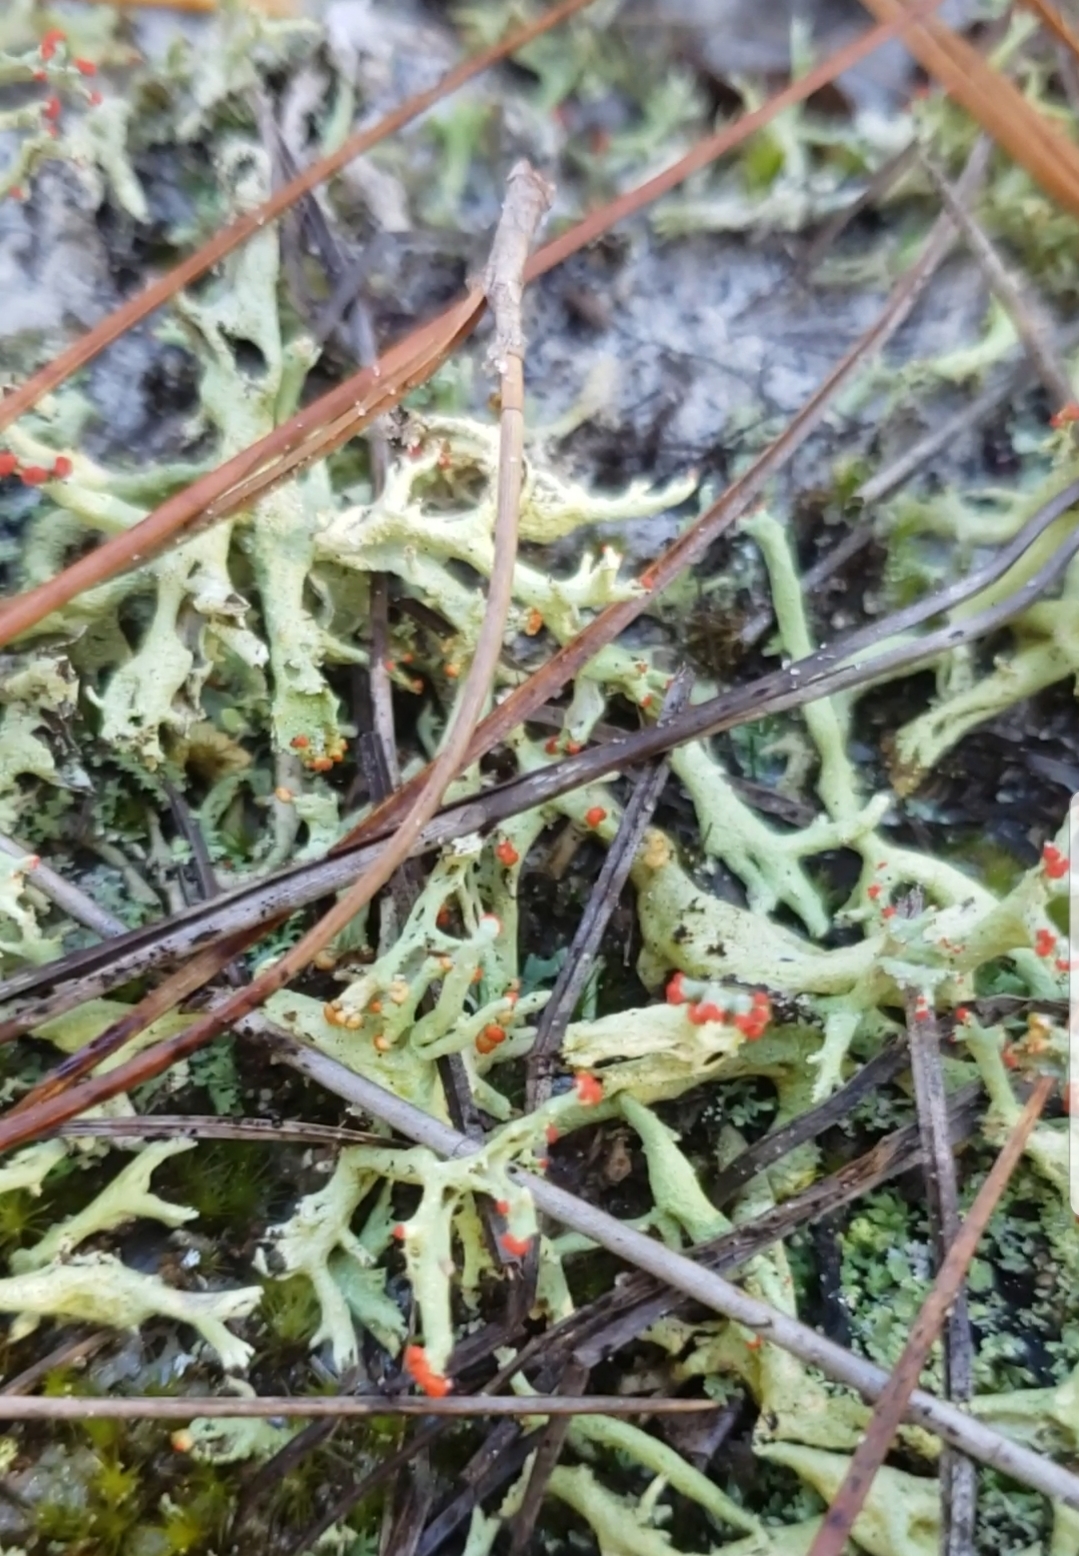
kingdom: Fungi
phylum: Ascomycota
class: Lecanoromycetes
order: Lecanorales
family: Cladoniaceae
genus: Cladonia
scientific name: Cladonia leporina
